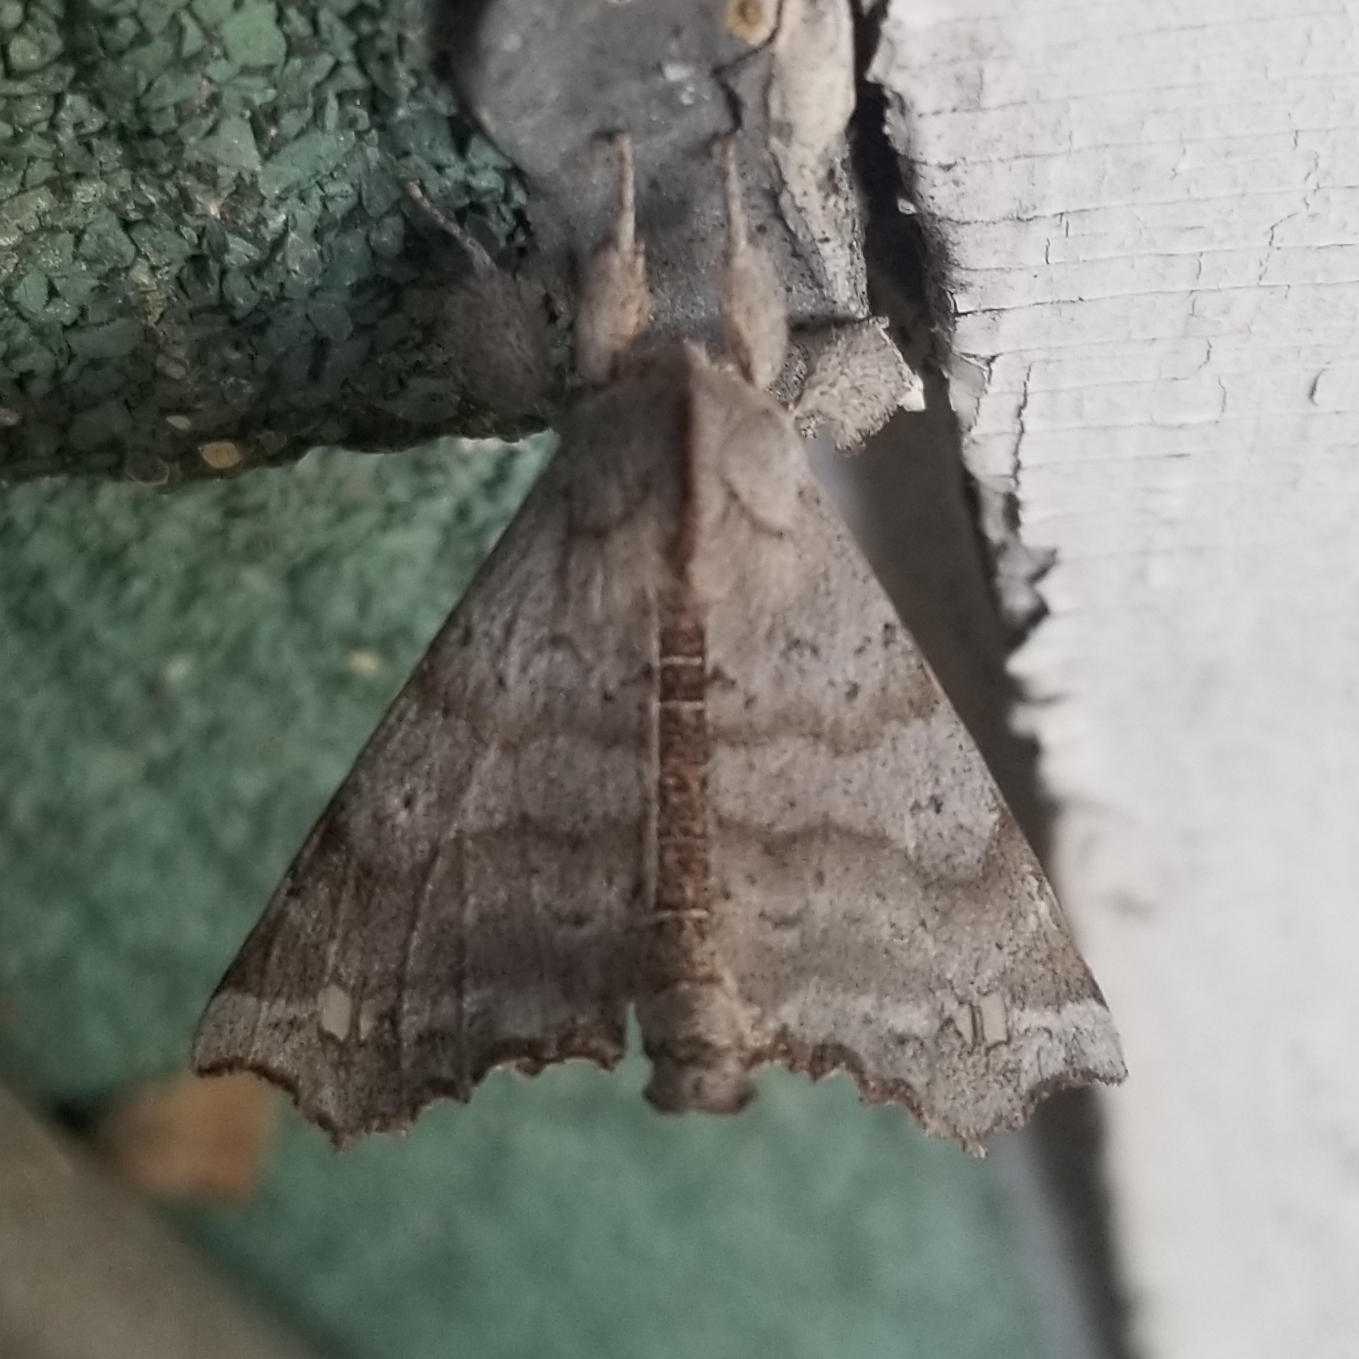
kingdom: Animalia
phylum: Arthropoda
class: Insecta
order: Lepidoptera
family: Apatelodidae
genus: Olceclostera
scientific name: Olceclostera angelica
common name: Angel moth
